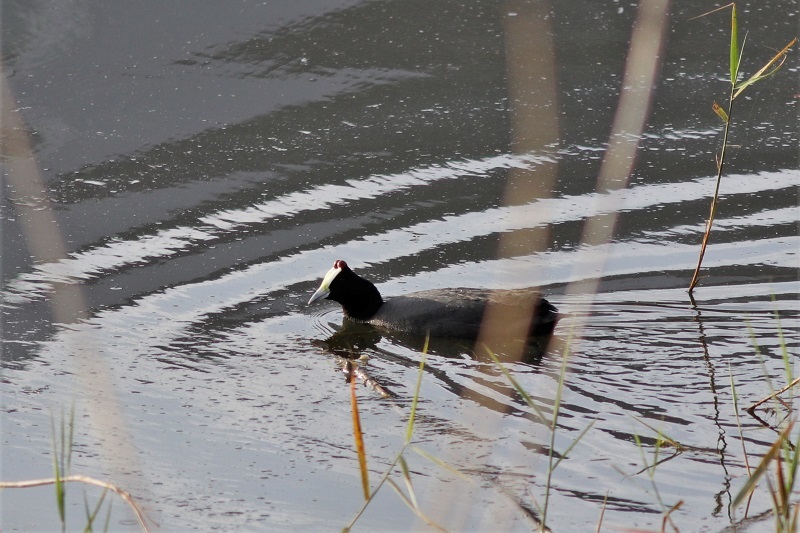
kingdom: Animalia
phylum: Chordata
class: Aves
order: Gruiformes
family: Rallidae
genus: Fulica
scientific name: Fulica cristata
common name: Red-knobbed coot
